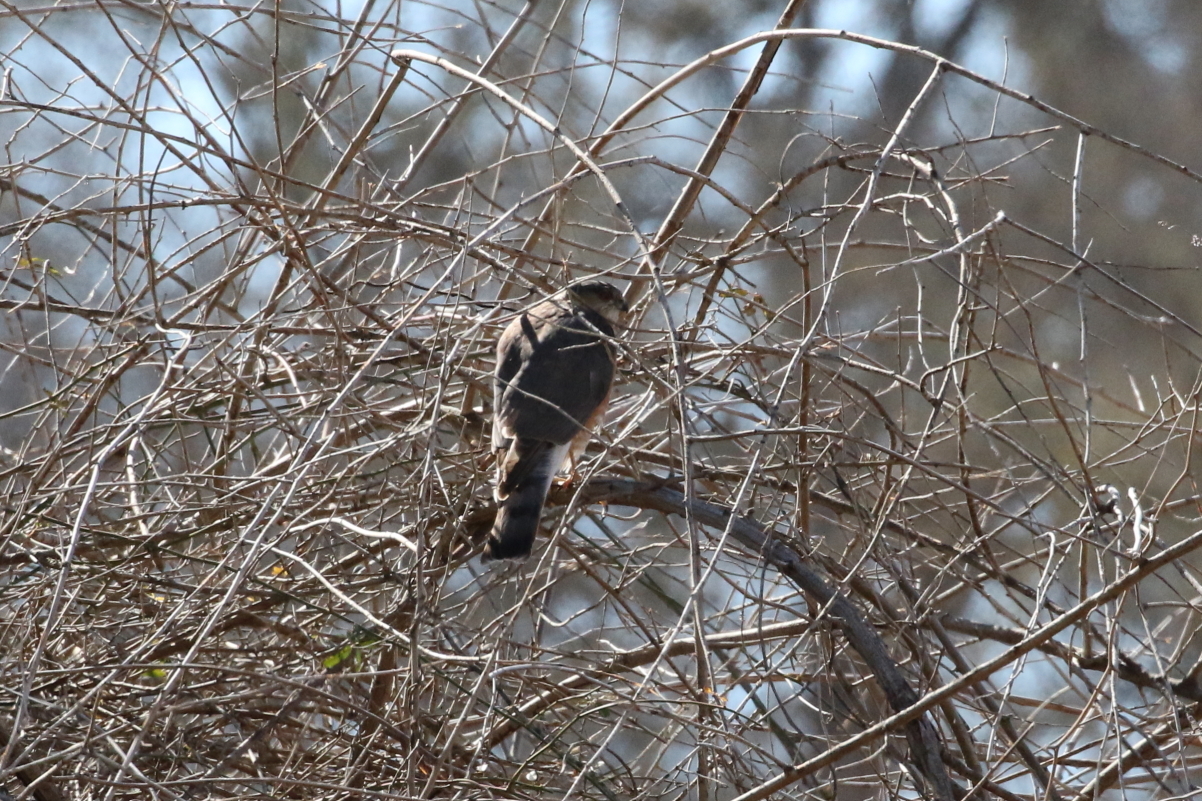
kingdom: Animalia
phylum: Chordata
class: Aves
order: Accipitriformes
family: Accipitridae
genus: Accipiter
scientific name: Accipiter striatus
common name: Sharp-shinned hawk
